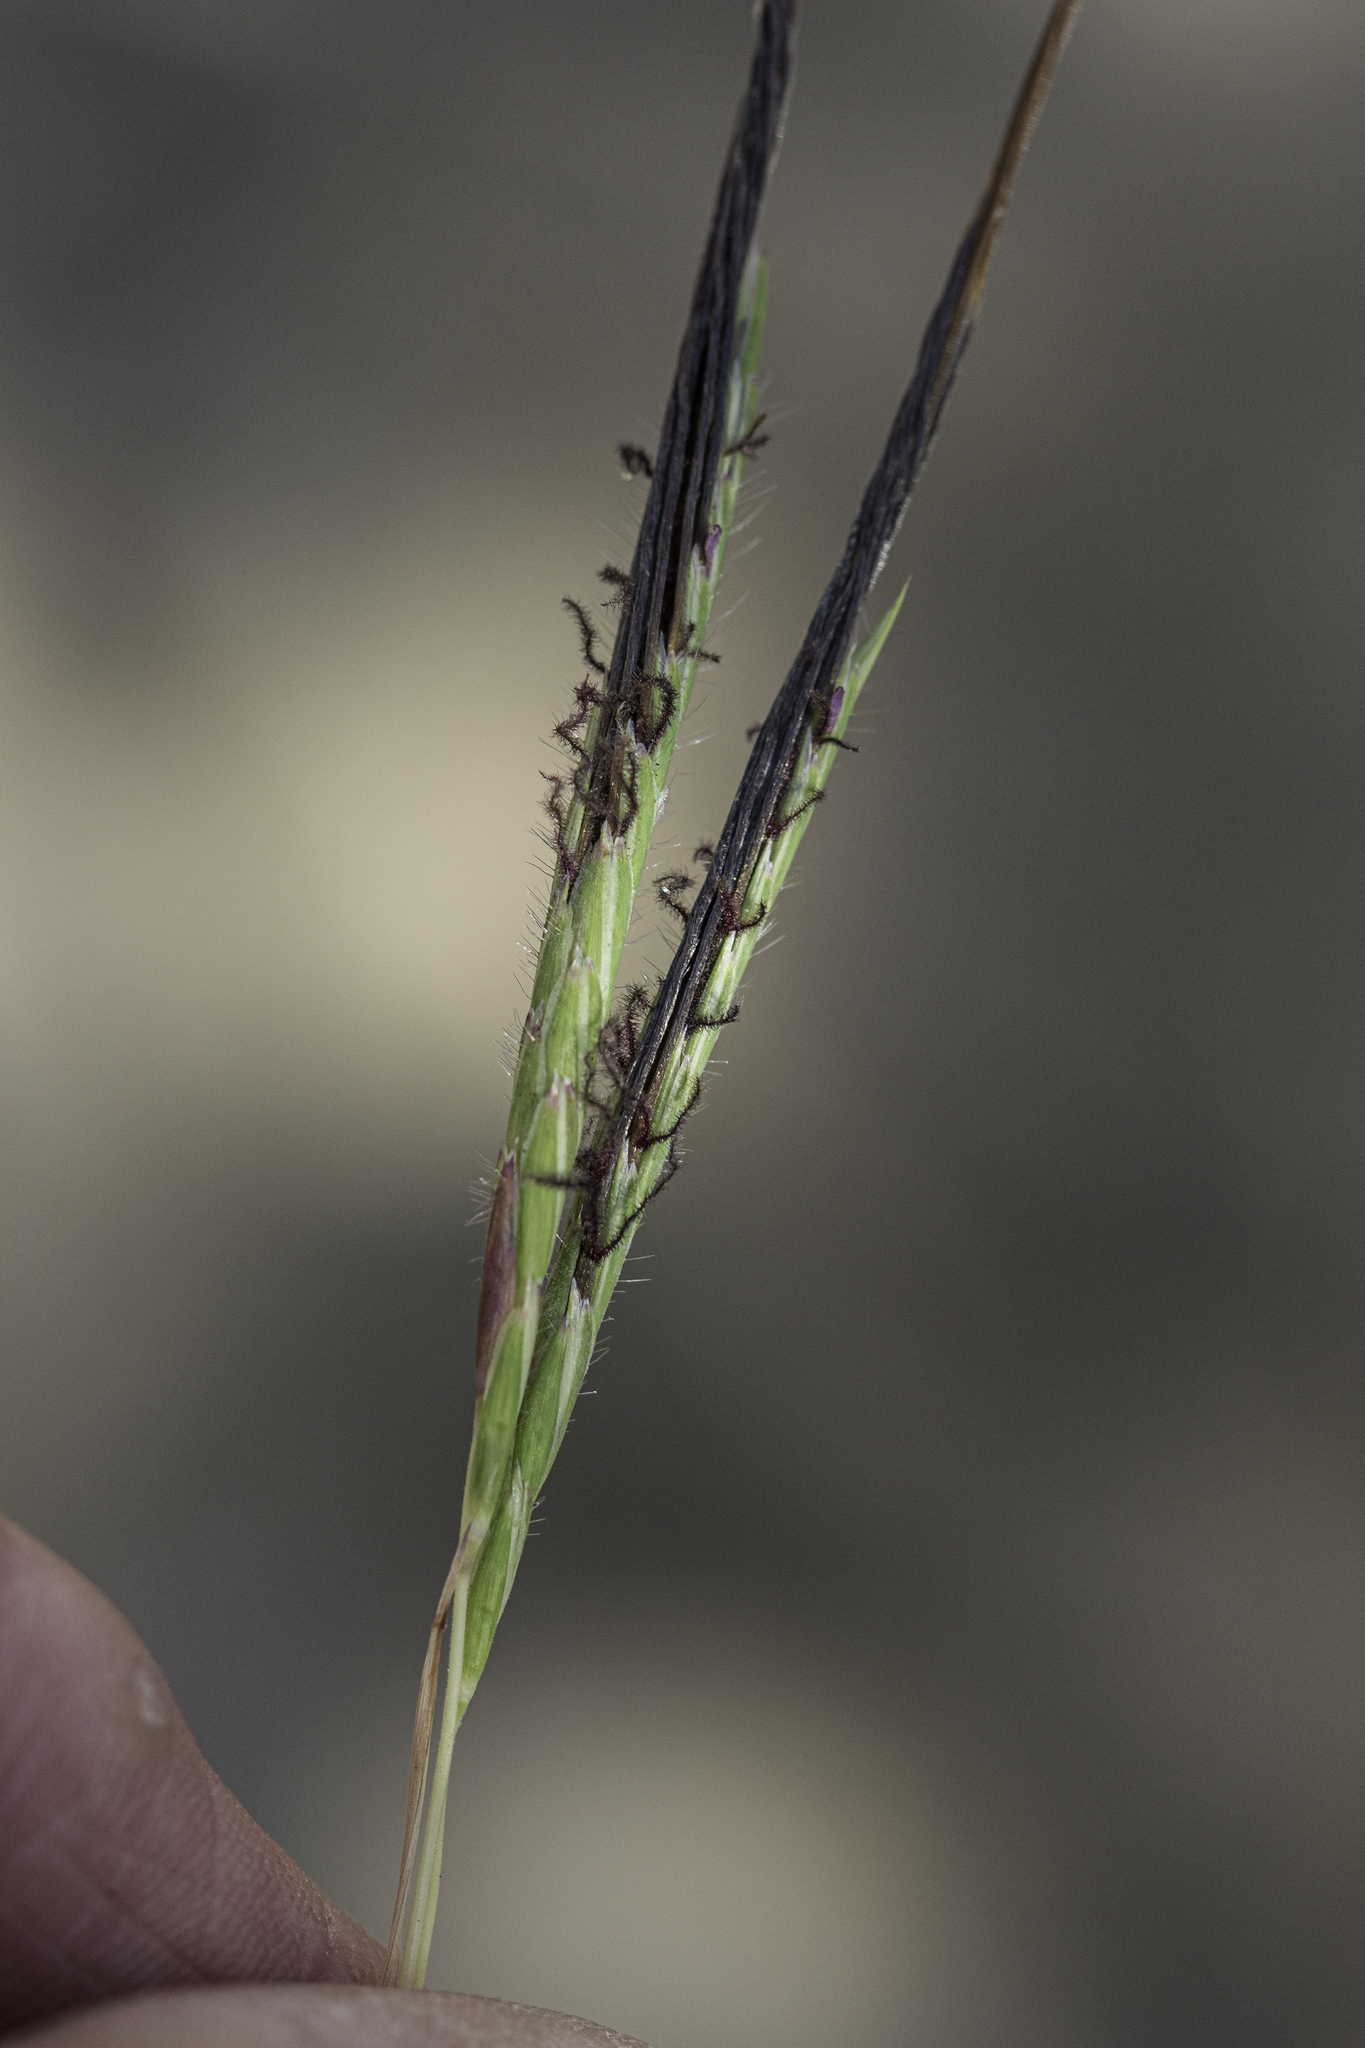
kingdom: Plantae
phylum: Tracheophyta
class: Liliopsida
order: Poales
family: Poaceae
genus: Heteropogon
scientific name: Heteropogon contortus
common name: Tanglehead
